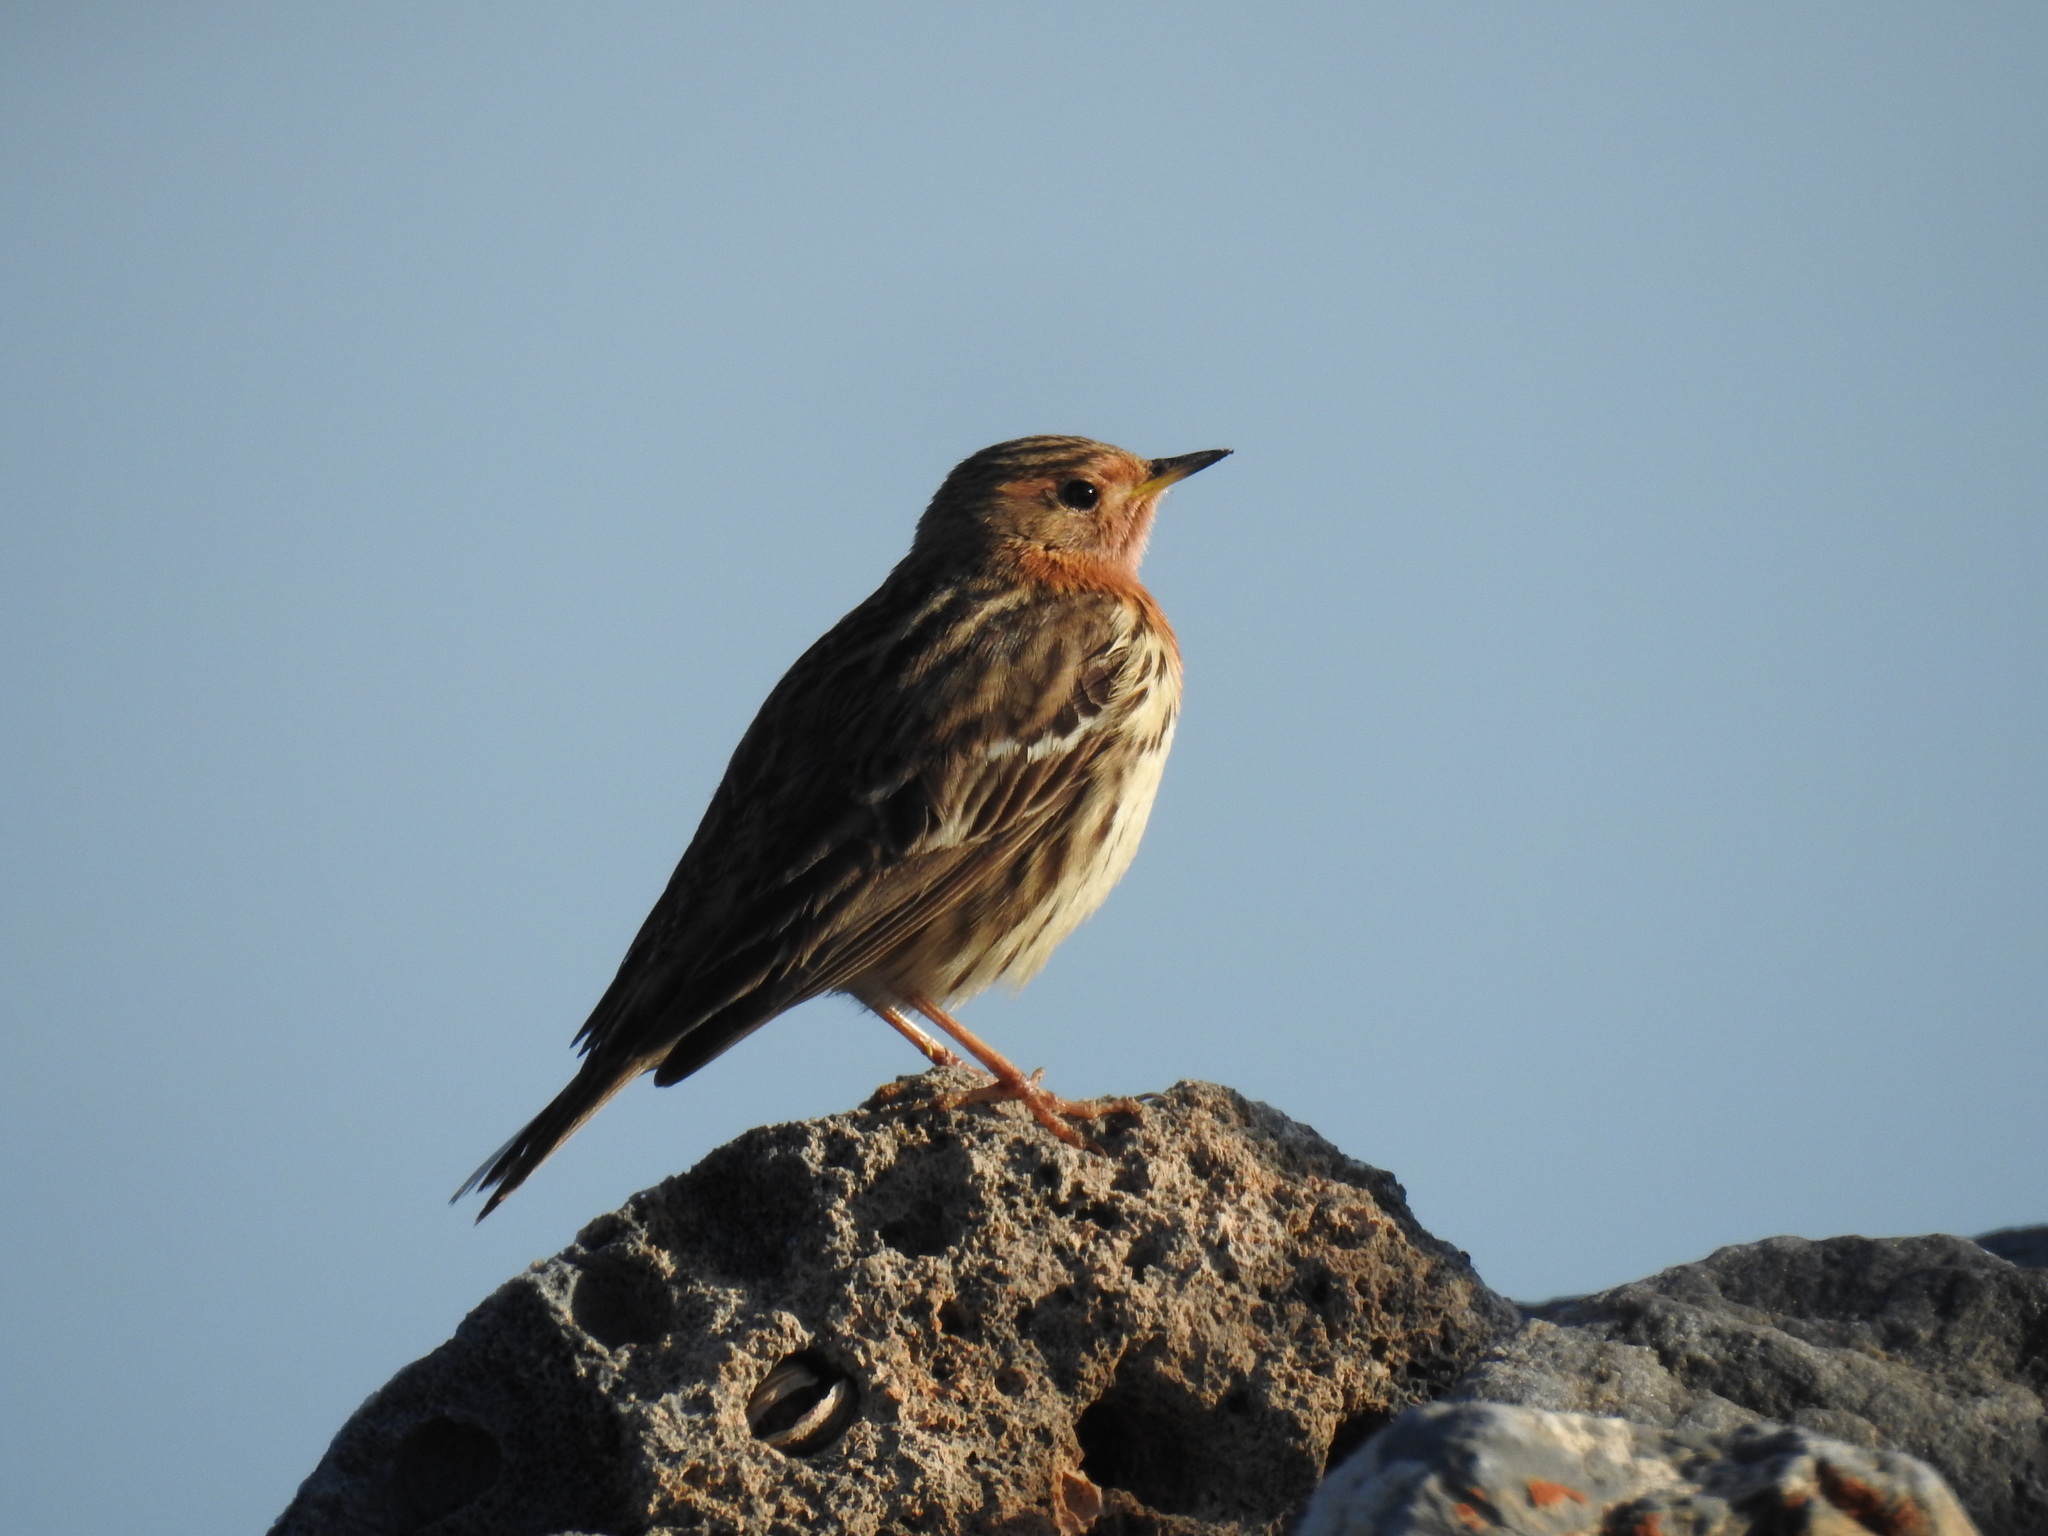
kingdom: Animalia
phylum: Chordata
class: Aves
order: Passeriformes
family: Motacillidae
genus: Anthus
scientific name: Anthus cervinus
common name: Red-throated pipit
